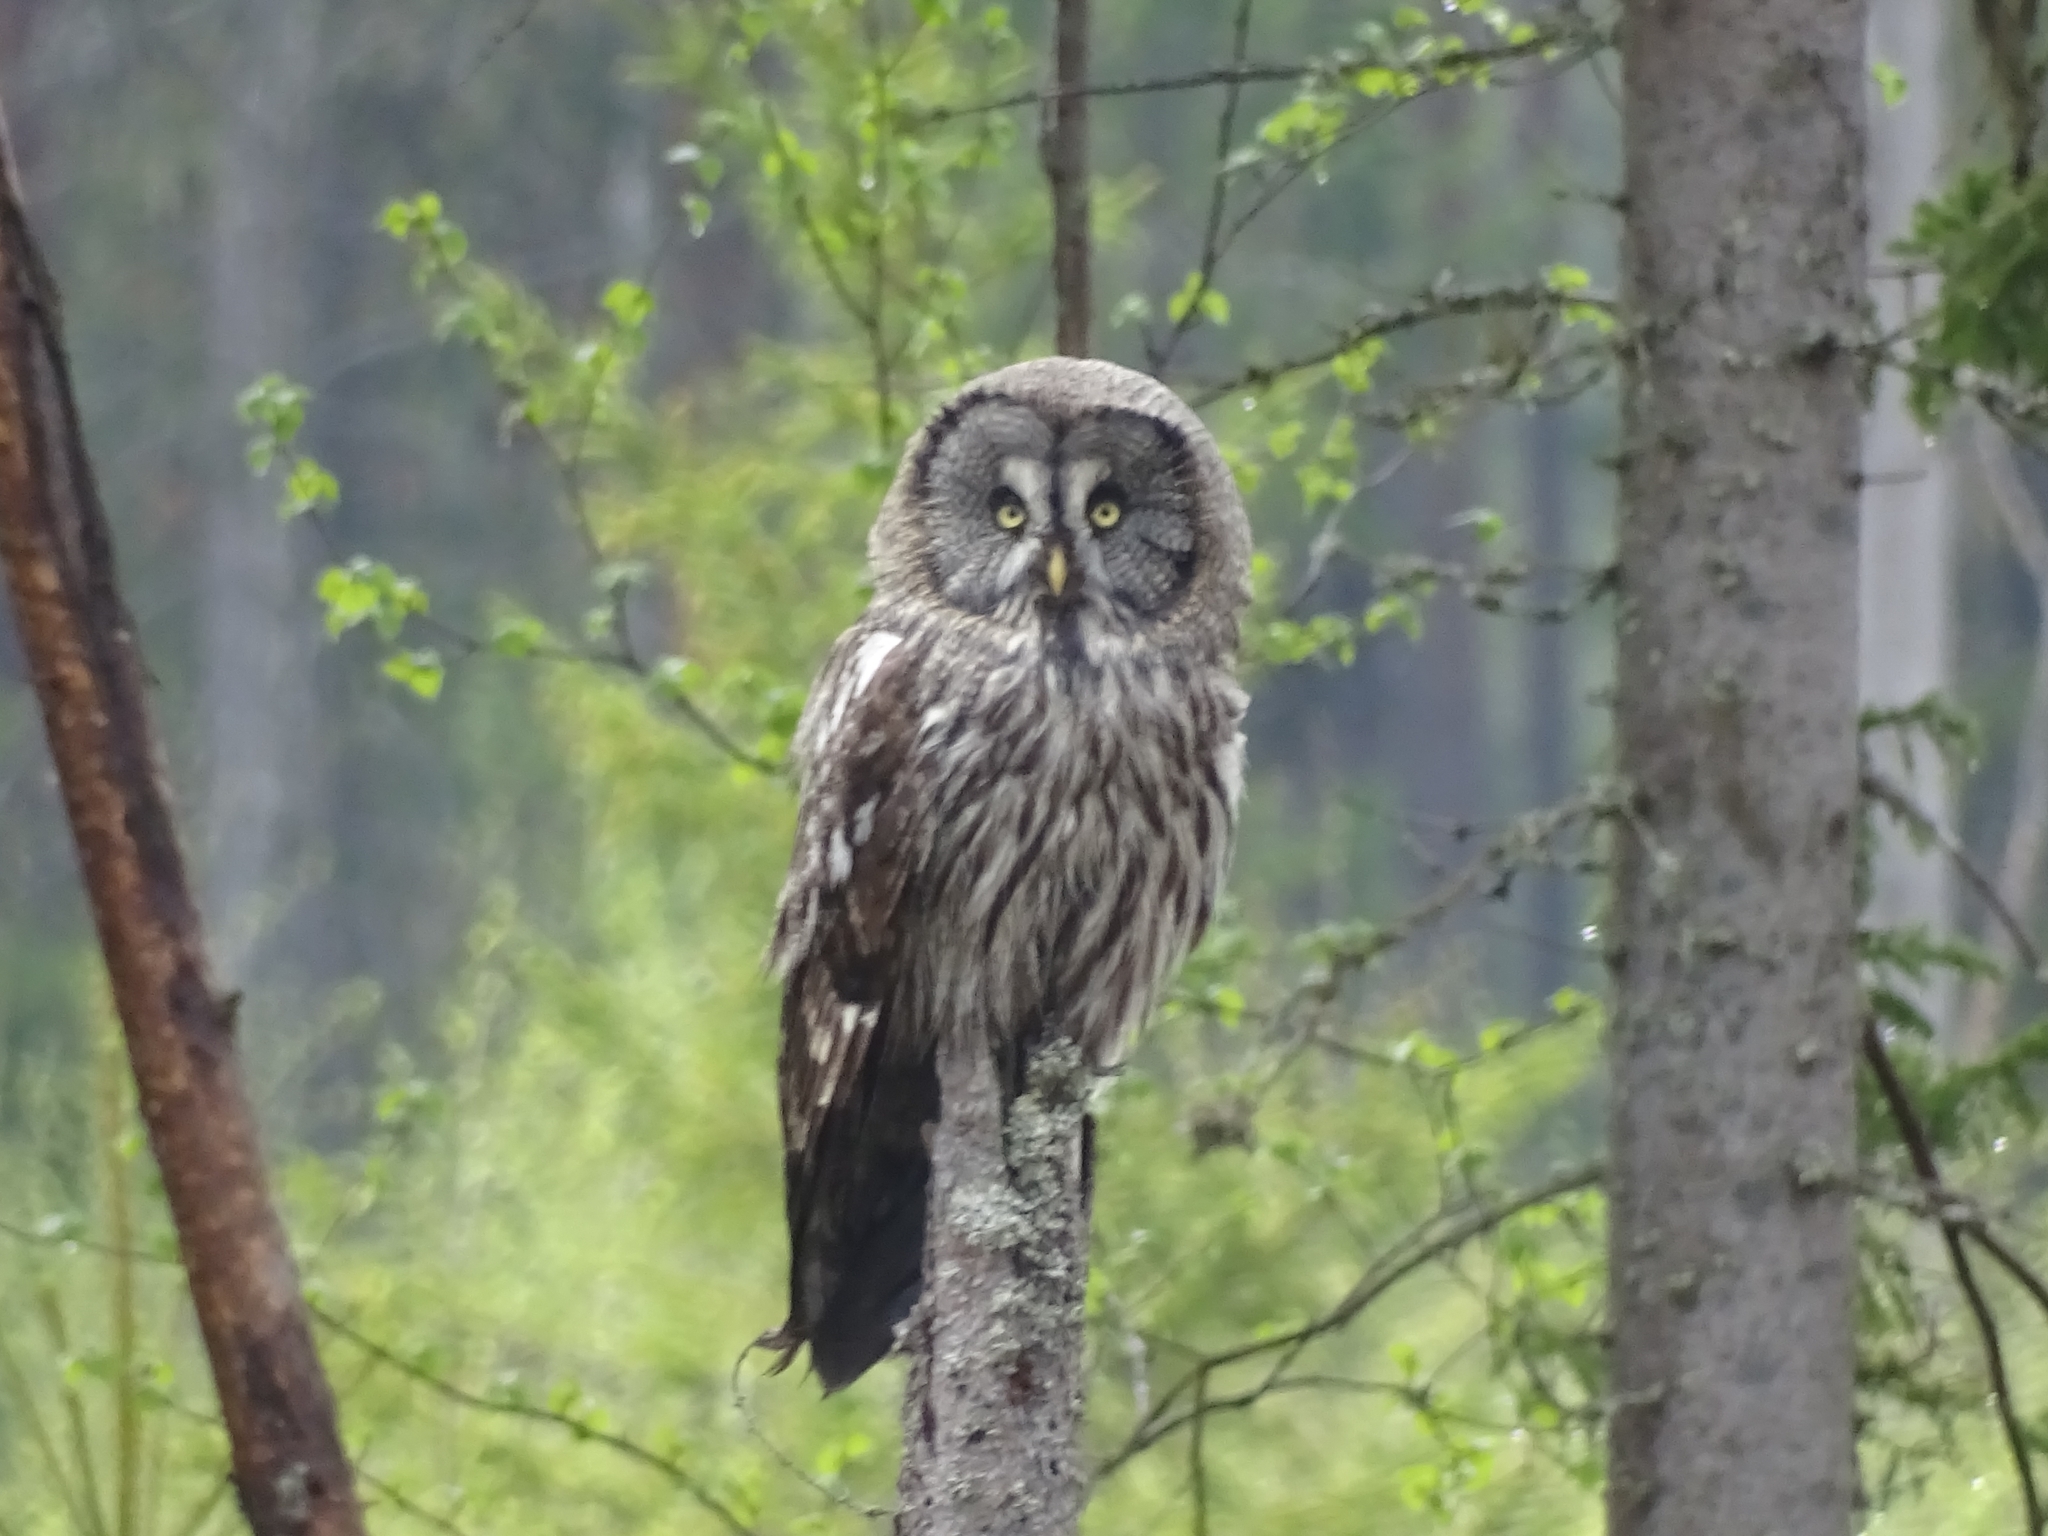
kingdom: Animalia
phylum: Chordata
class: Aves
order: Strigiformes
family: Strigidae
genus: Strix
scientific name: Strix nebulosa
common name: Great grey owl
